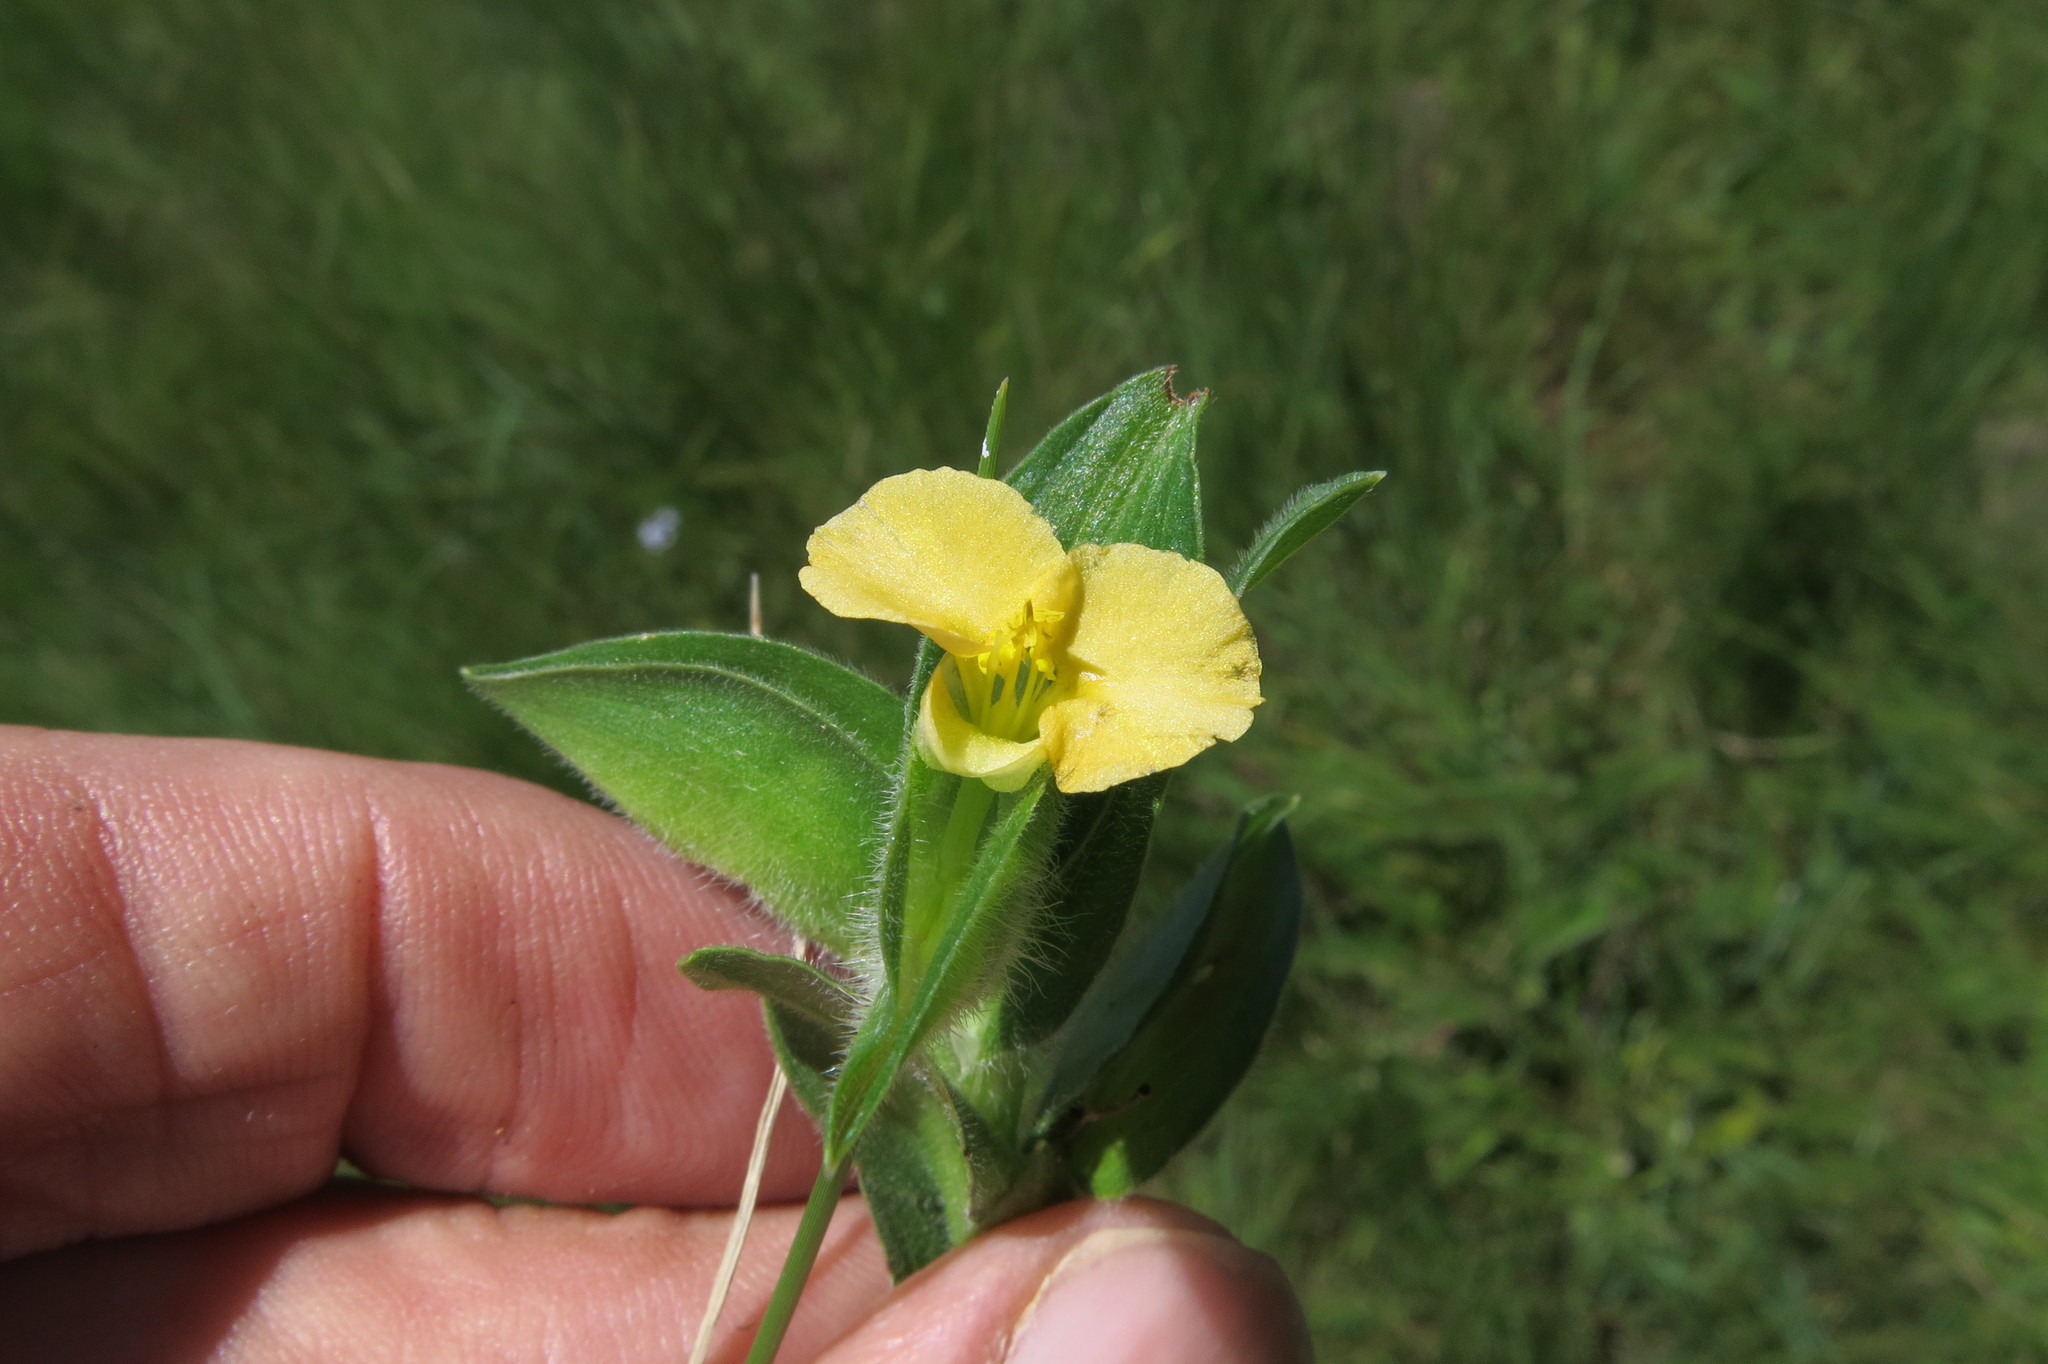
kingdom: Plantae
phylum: Tracheophyta
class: Liliopsida
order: Commelinales
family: Commelinaceae
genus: Commelina
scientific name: Commelina africana
